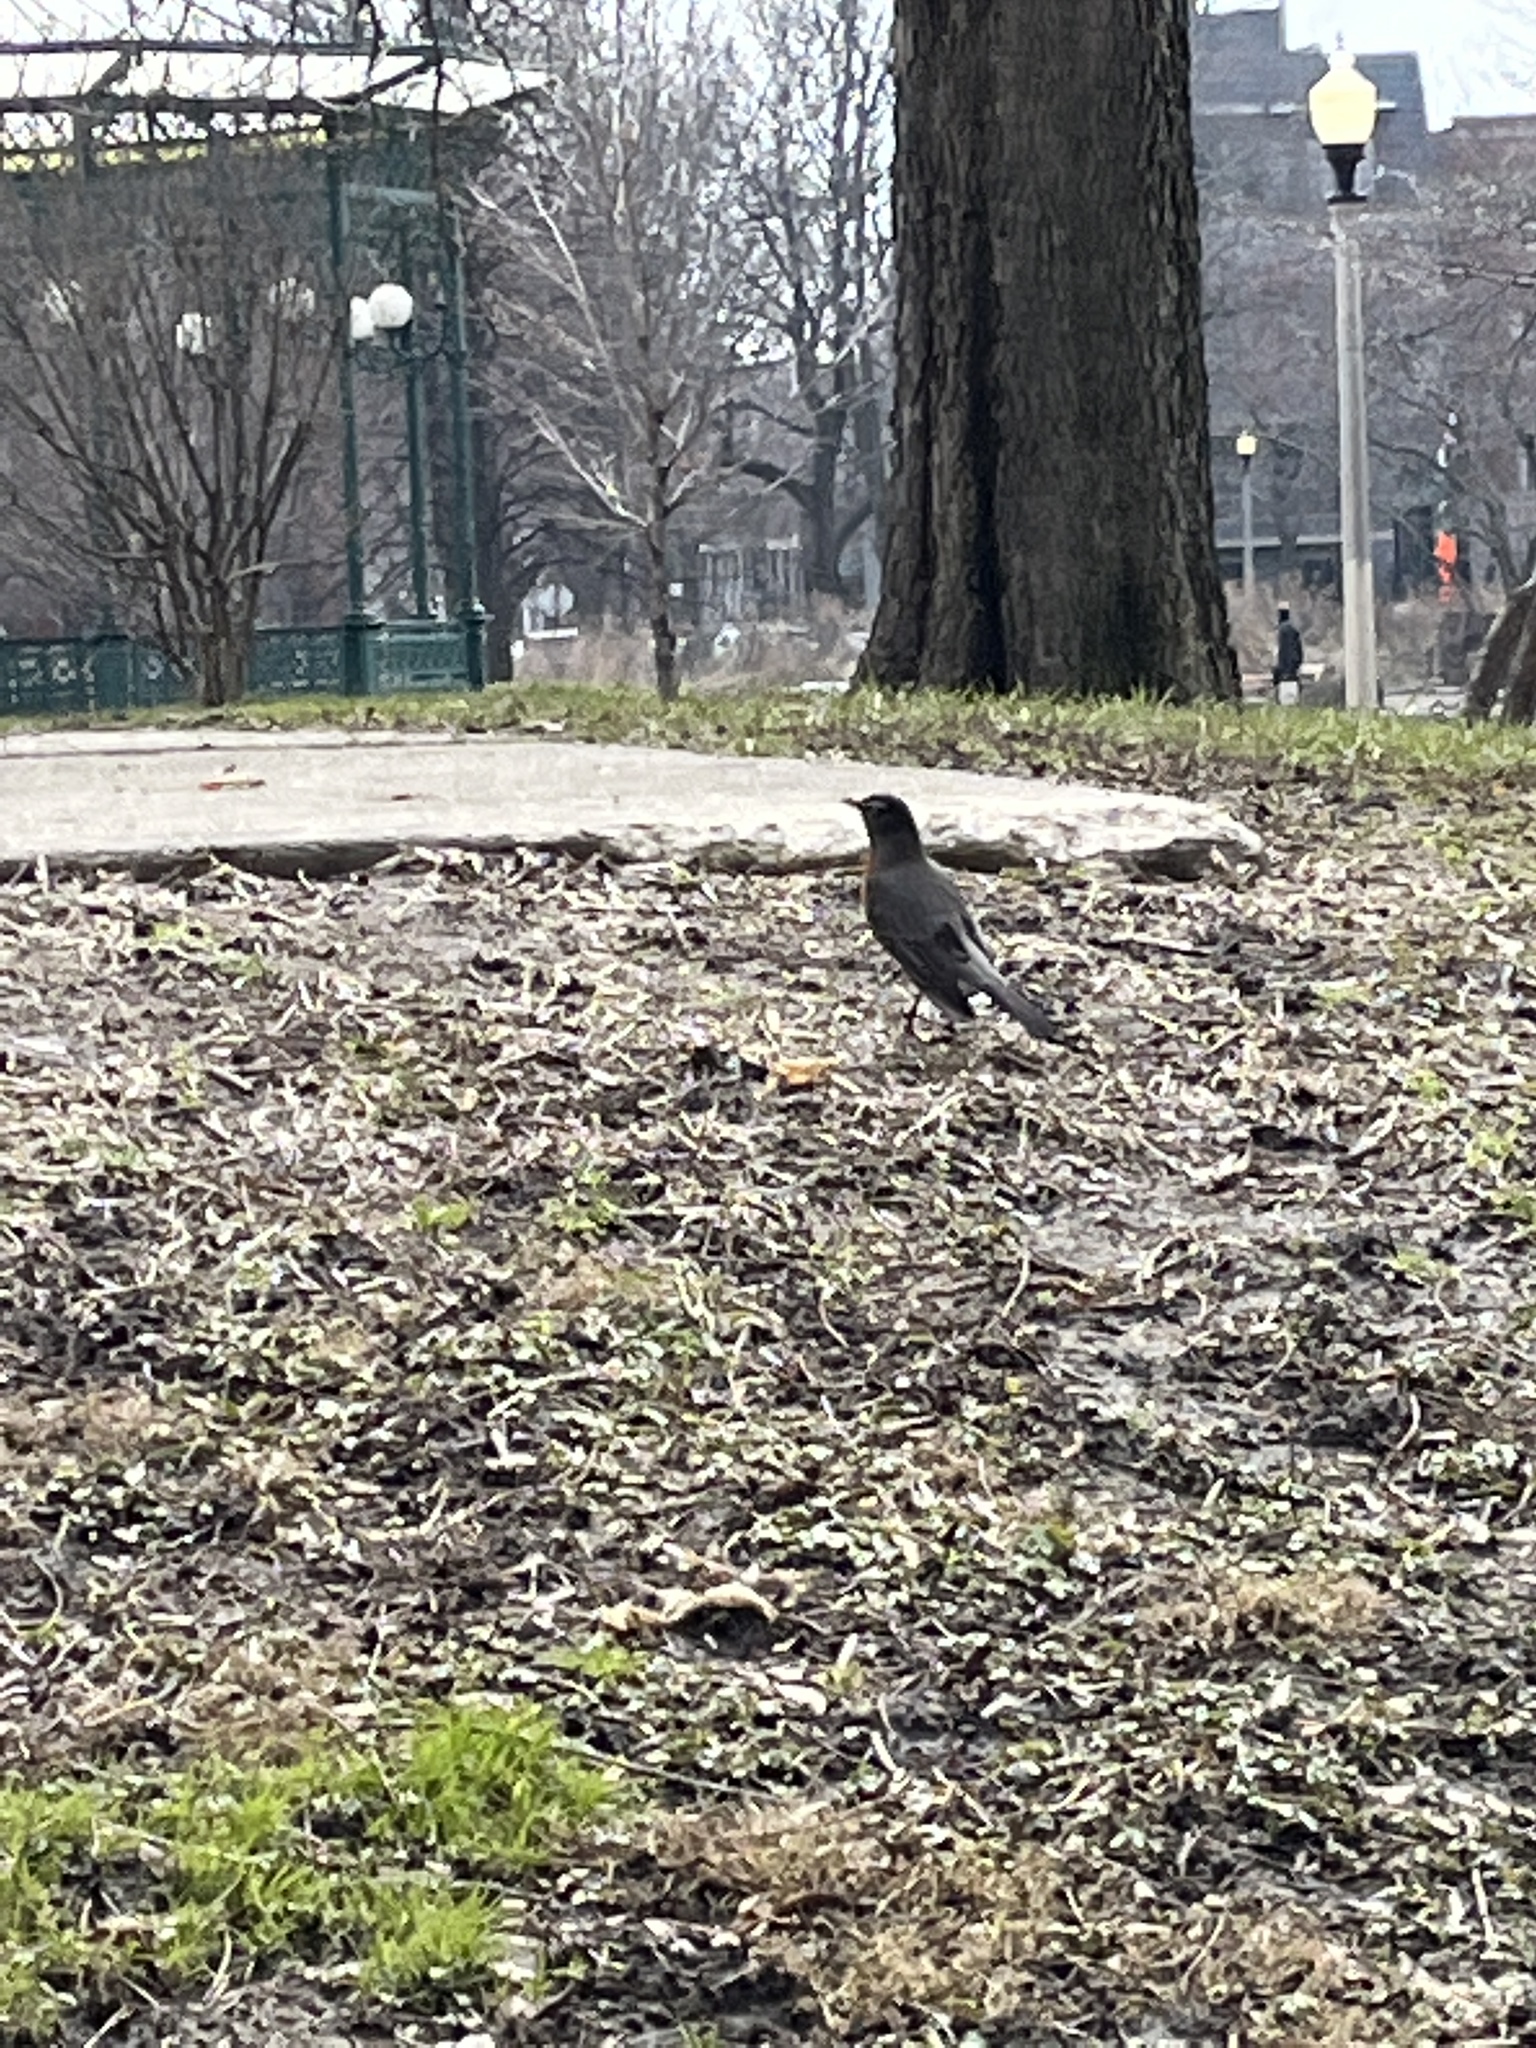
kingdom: Animalia
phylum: Chordata
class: Aves
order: Passeriformes
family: Turdidae
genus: Turdus
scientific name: Turdus migratorius
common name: American robin
